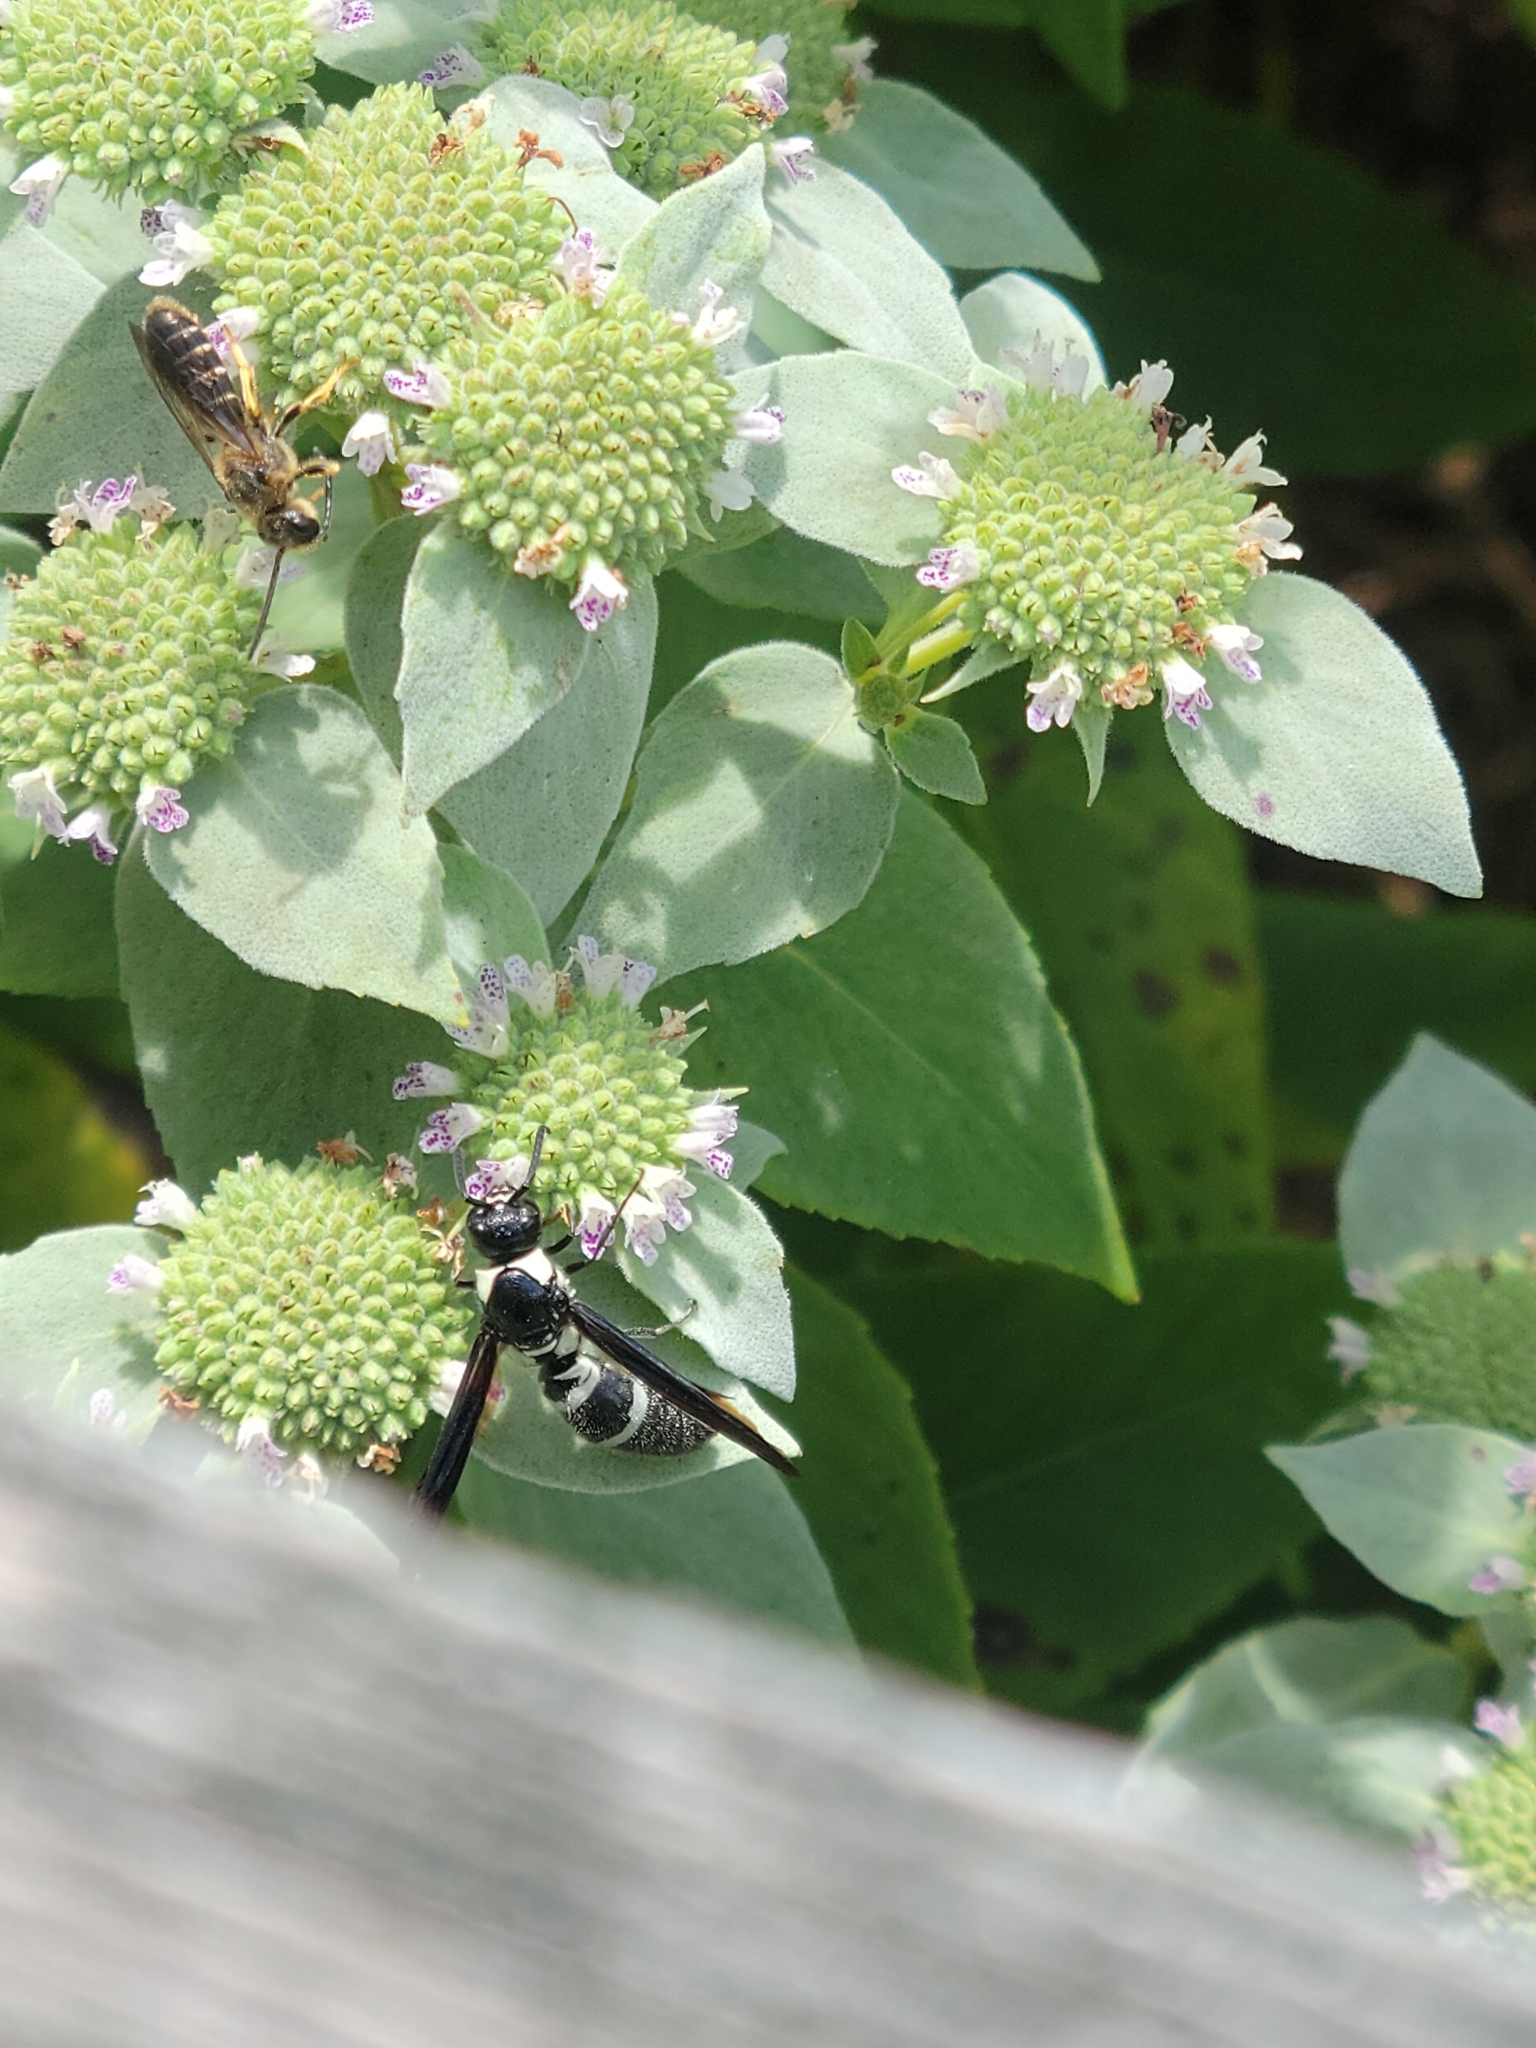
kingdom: Animalia
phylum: Arthropoda
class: Insecta
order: Hymenoptera
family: Eumenidae
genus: Pseudodynerus
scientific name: Pseudodynerus quadrisectus
